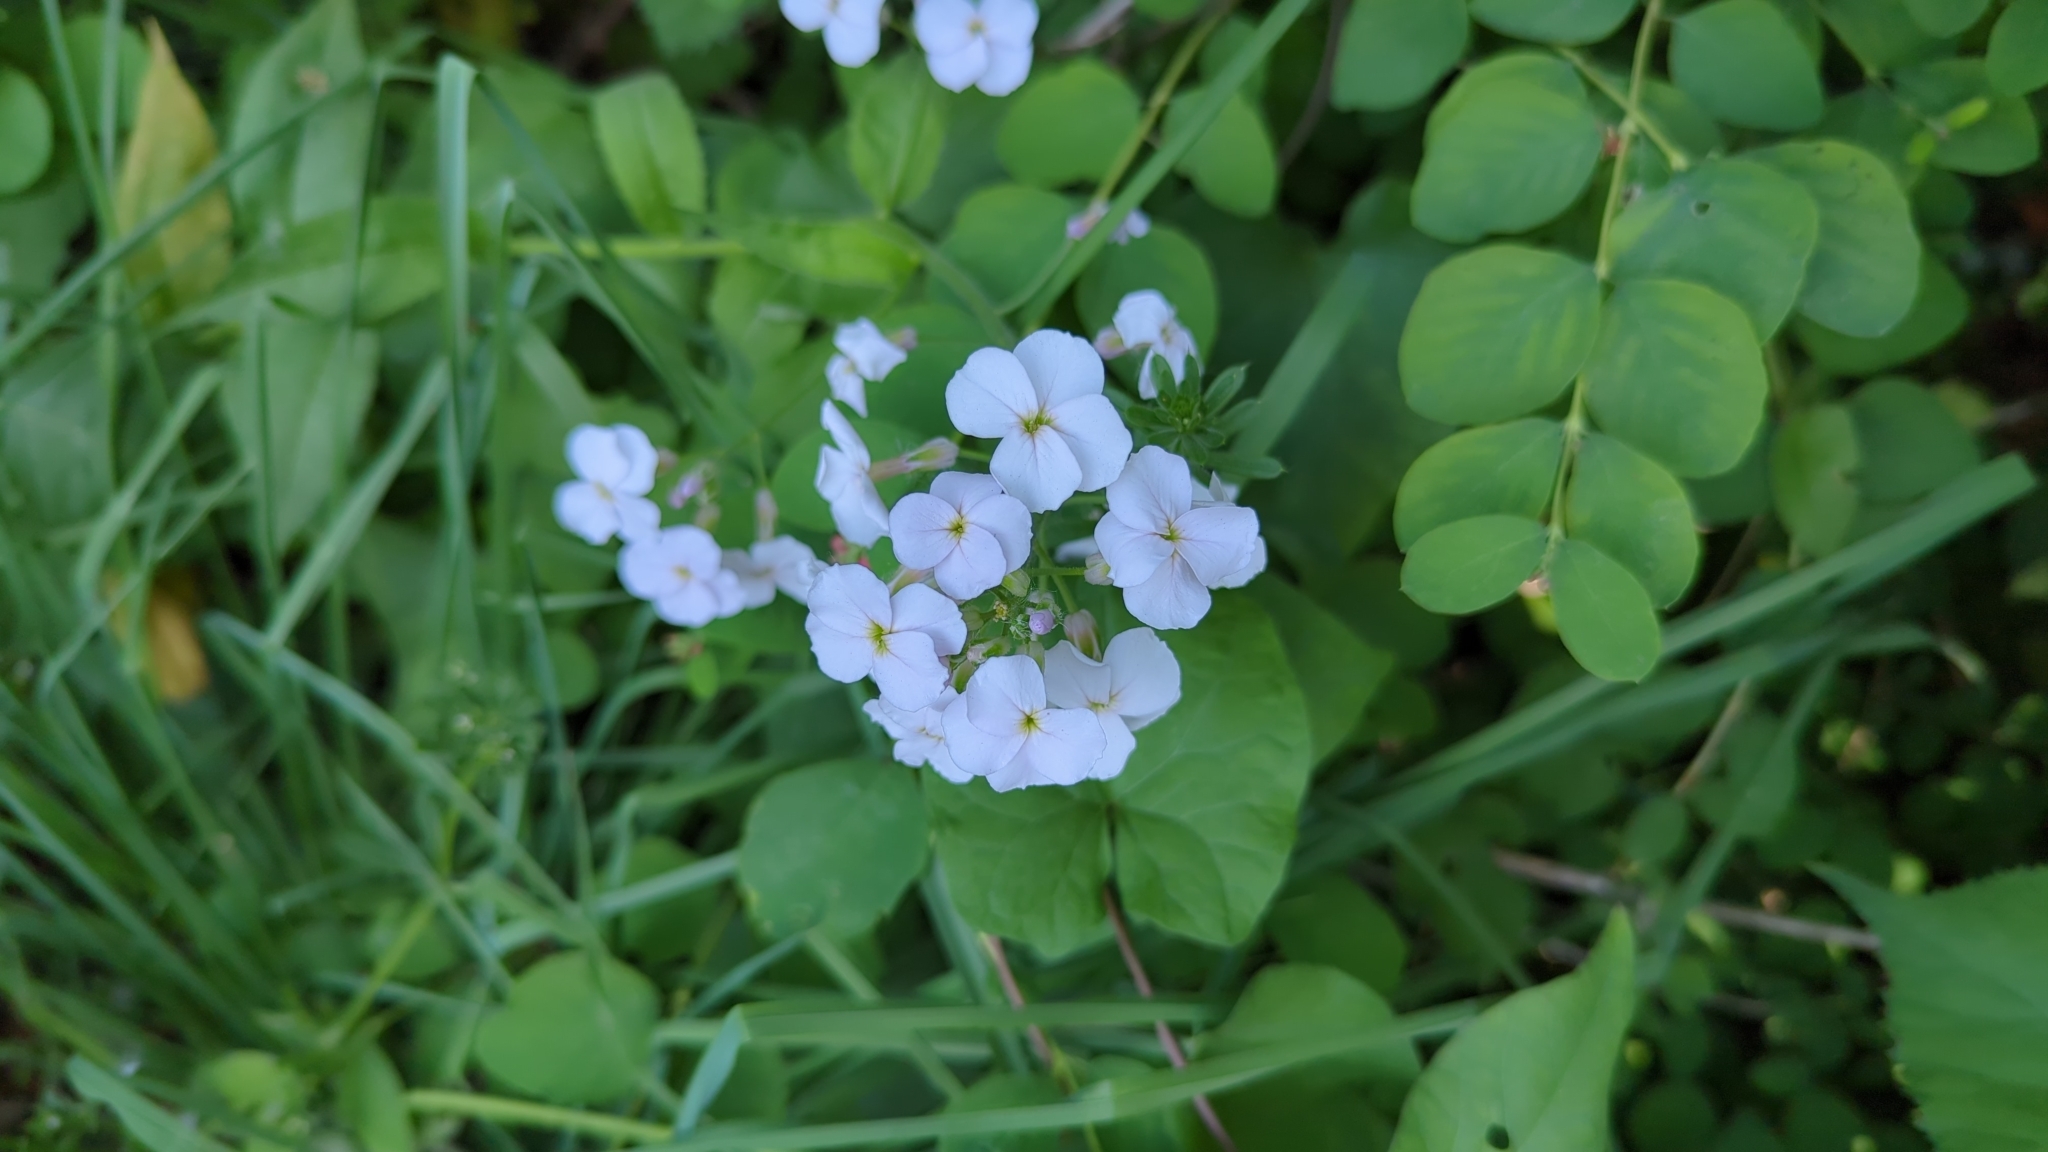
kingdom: Plantae
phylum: Tracheophyta
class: Magnoliopsida
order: Brassicales
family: Brassicaceae
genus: Hesperis
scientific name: Hesperis matronalis
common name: Dame's-violet
